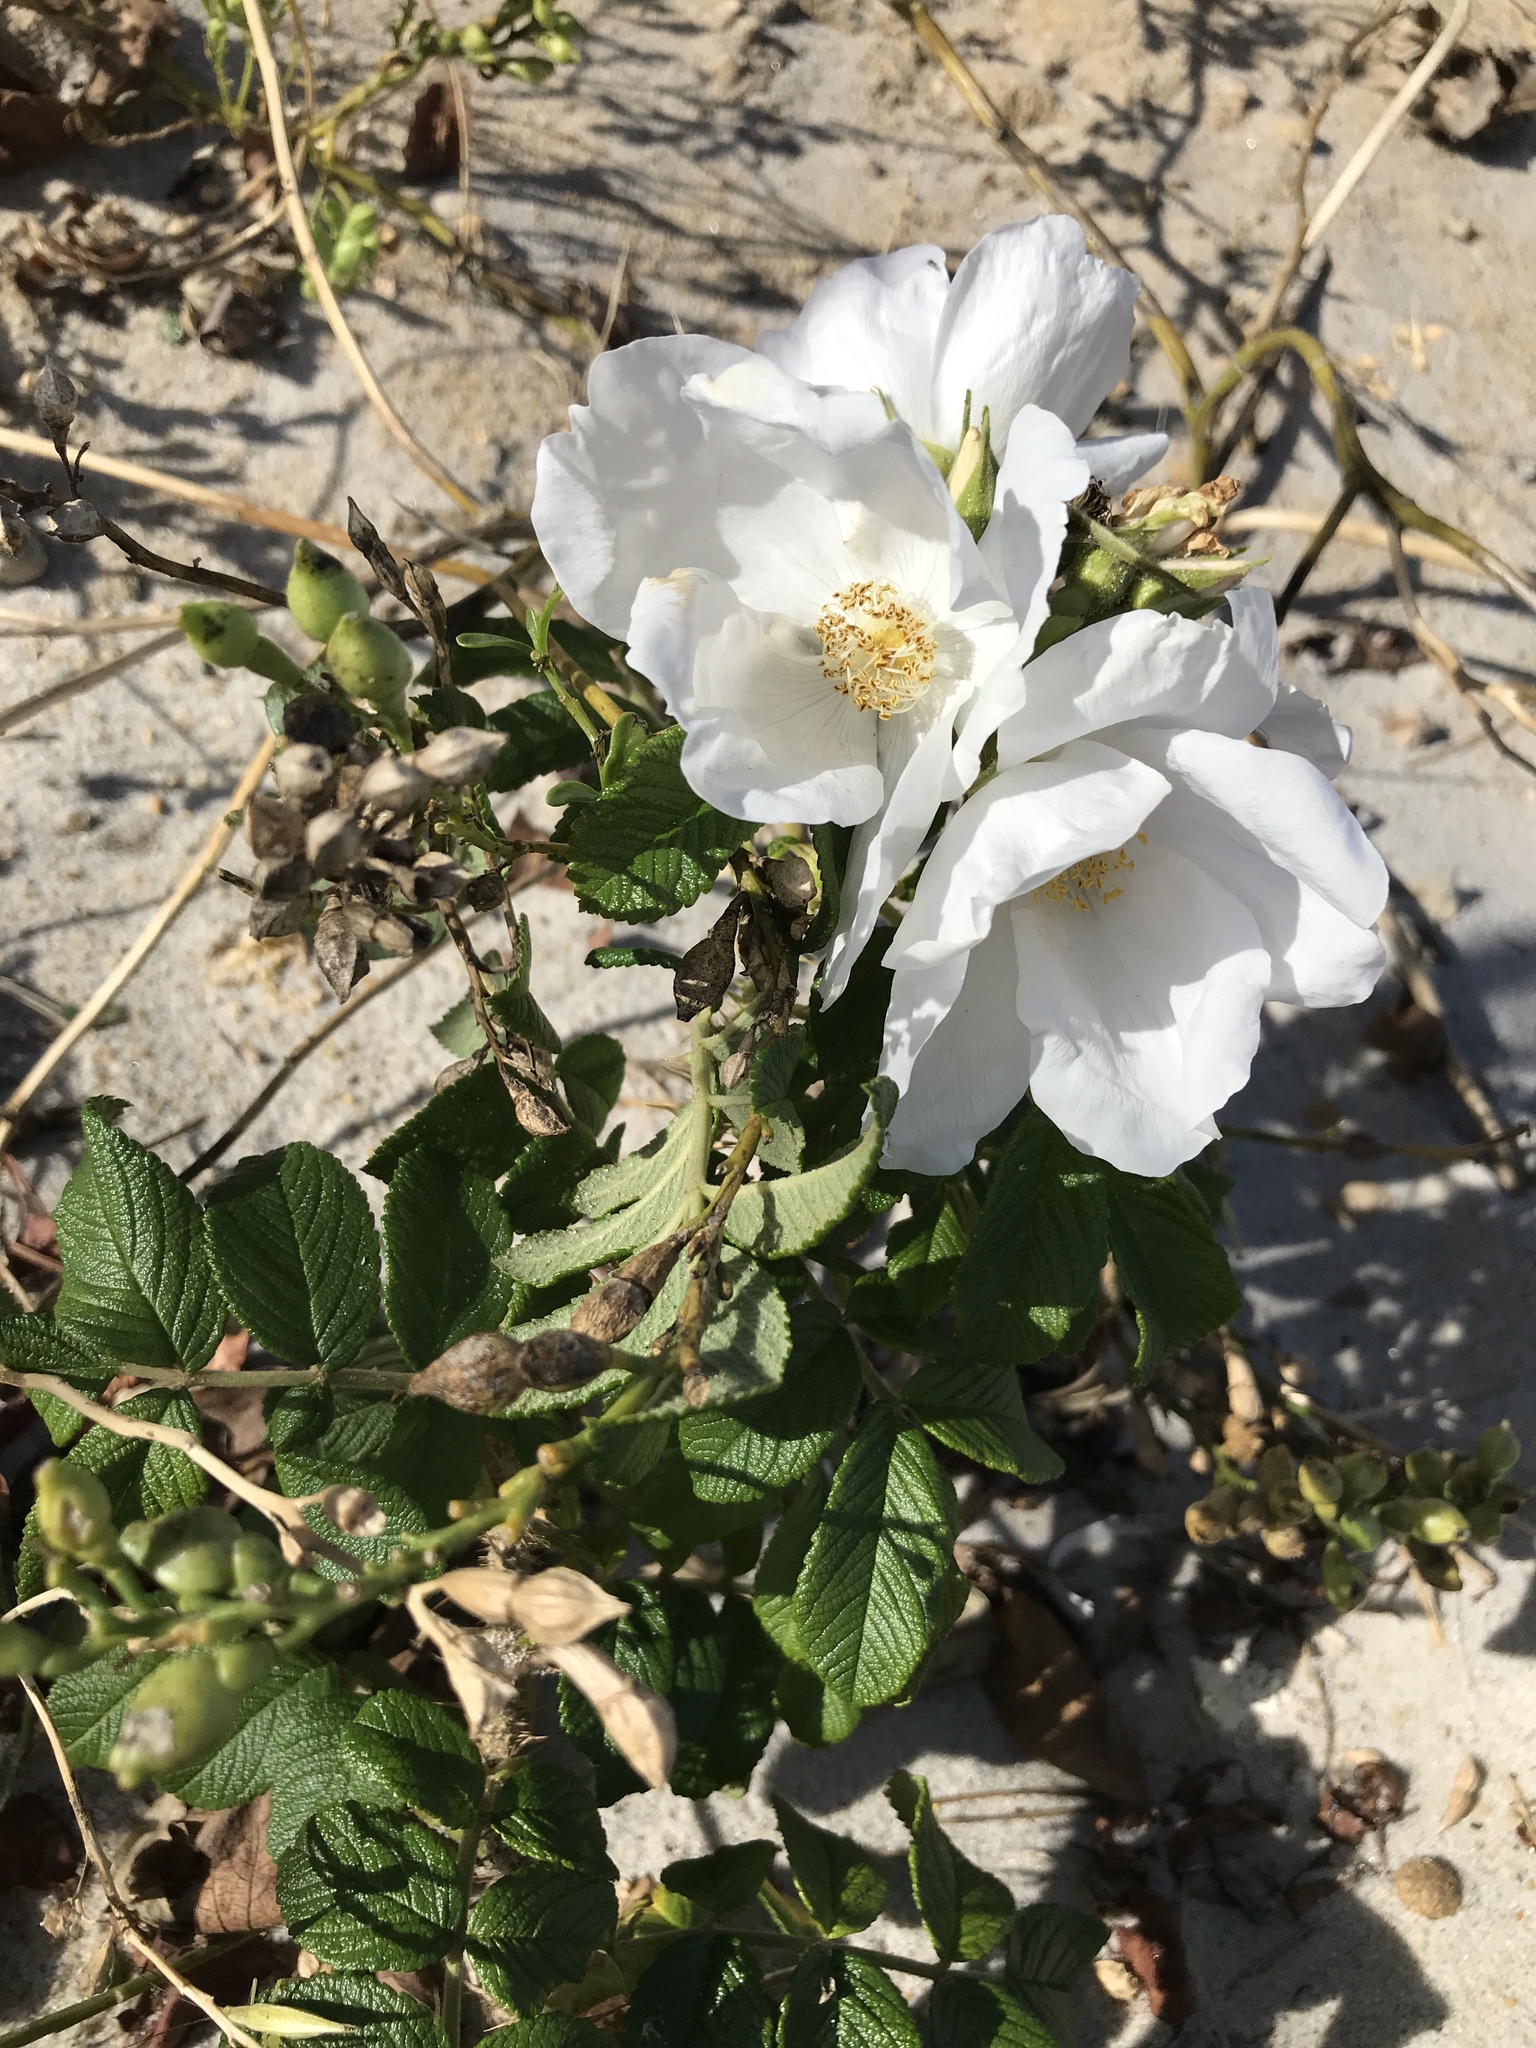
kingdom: Plantae
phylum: Tracheophyta
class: Magnoliopsida
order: Rosales
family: Rosaceae
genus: Rosa
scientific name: Rosa rugosa
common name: Japanese rose
